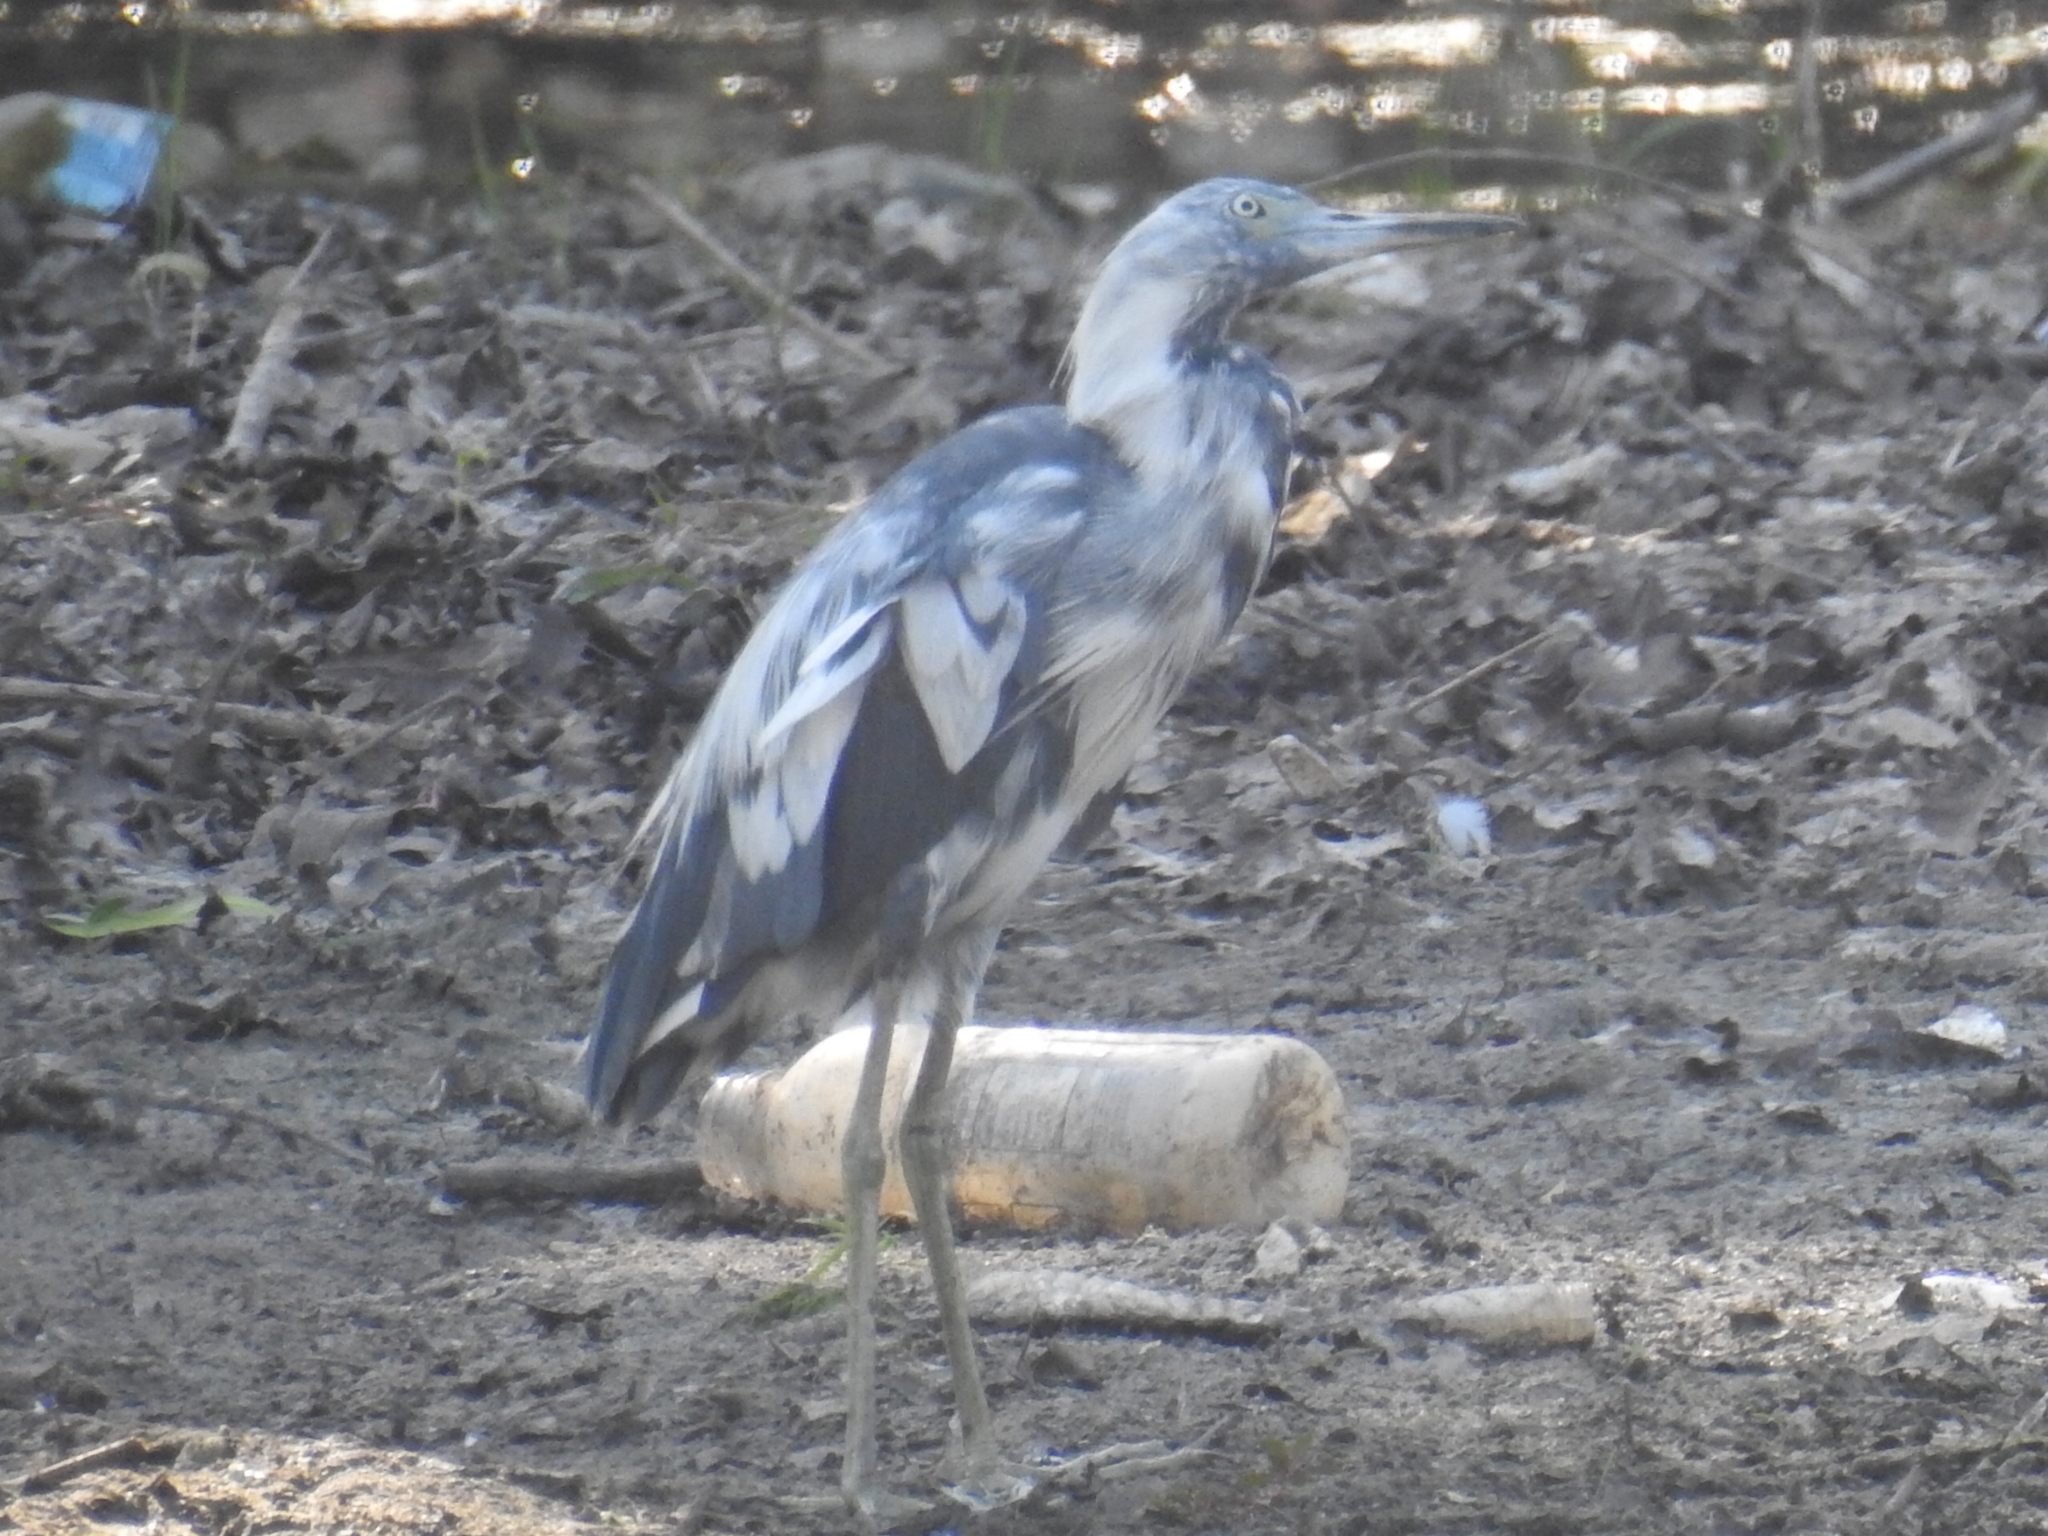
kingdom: Animalia
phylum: Chordata
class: Aves
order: Pelecaniformes
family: Ardeidae
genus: Egretta
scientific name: Egretta caerulea
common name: Little blue heron
